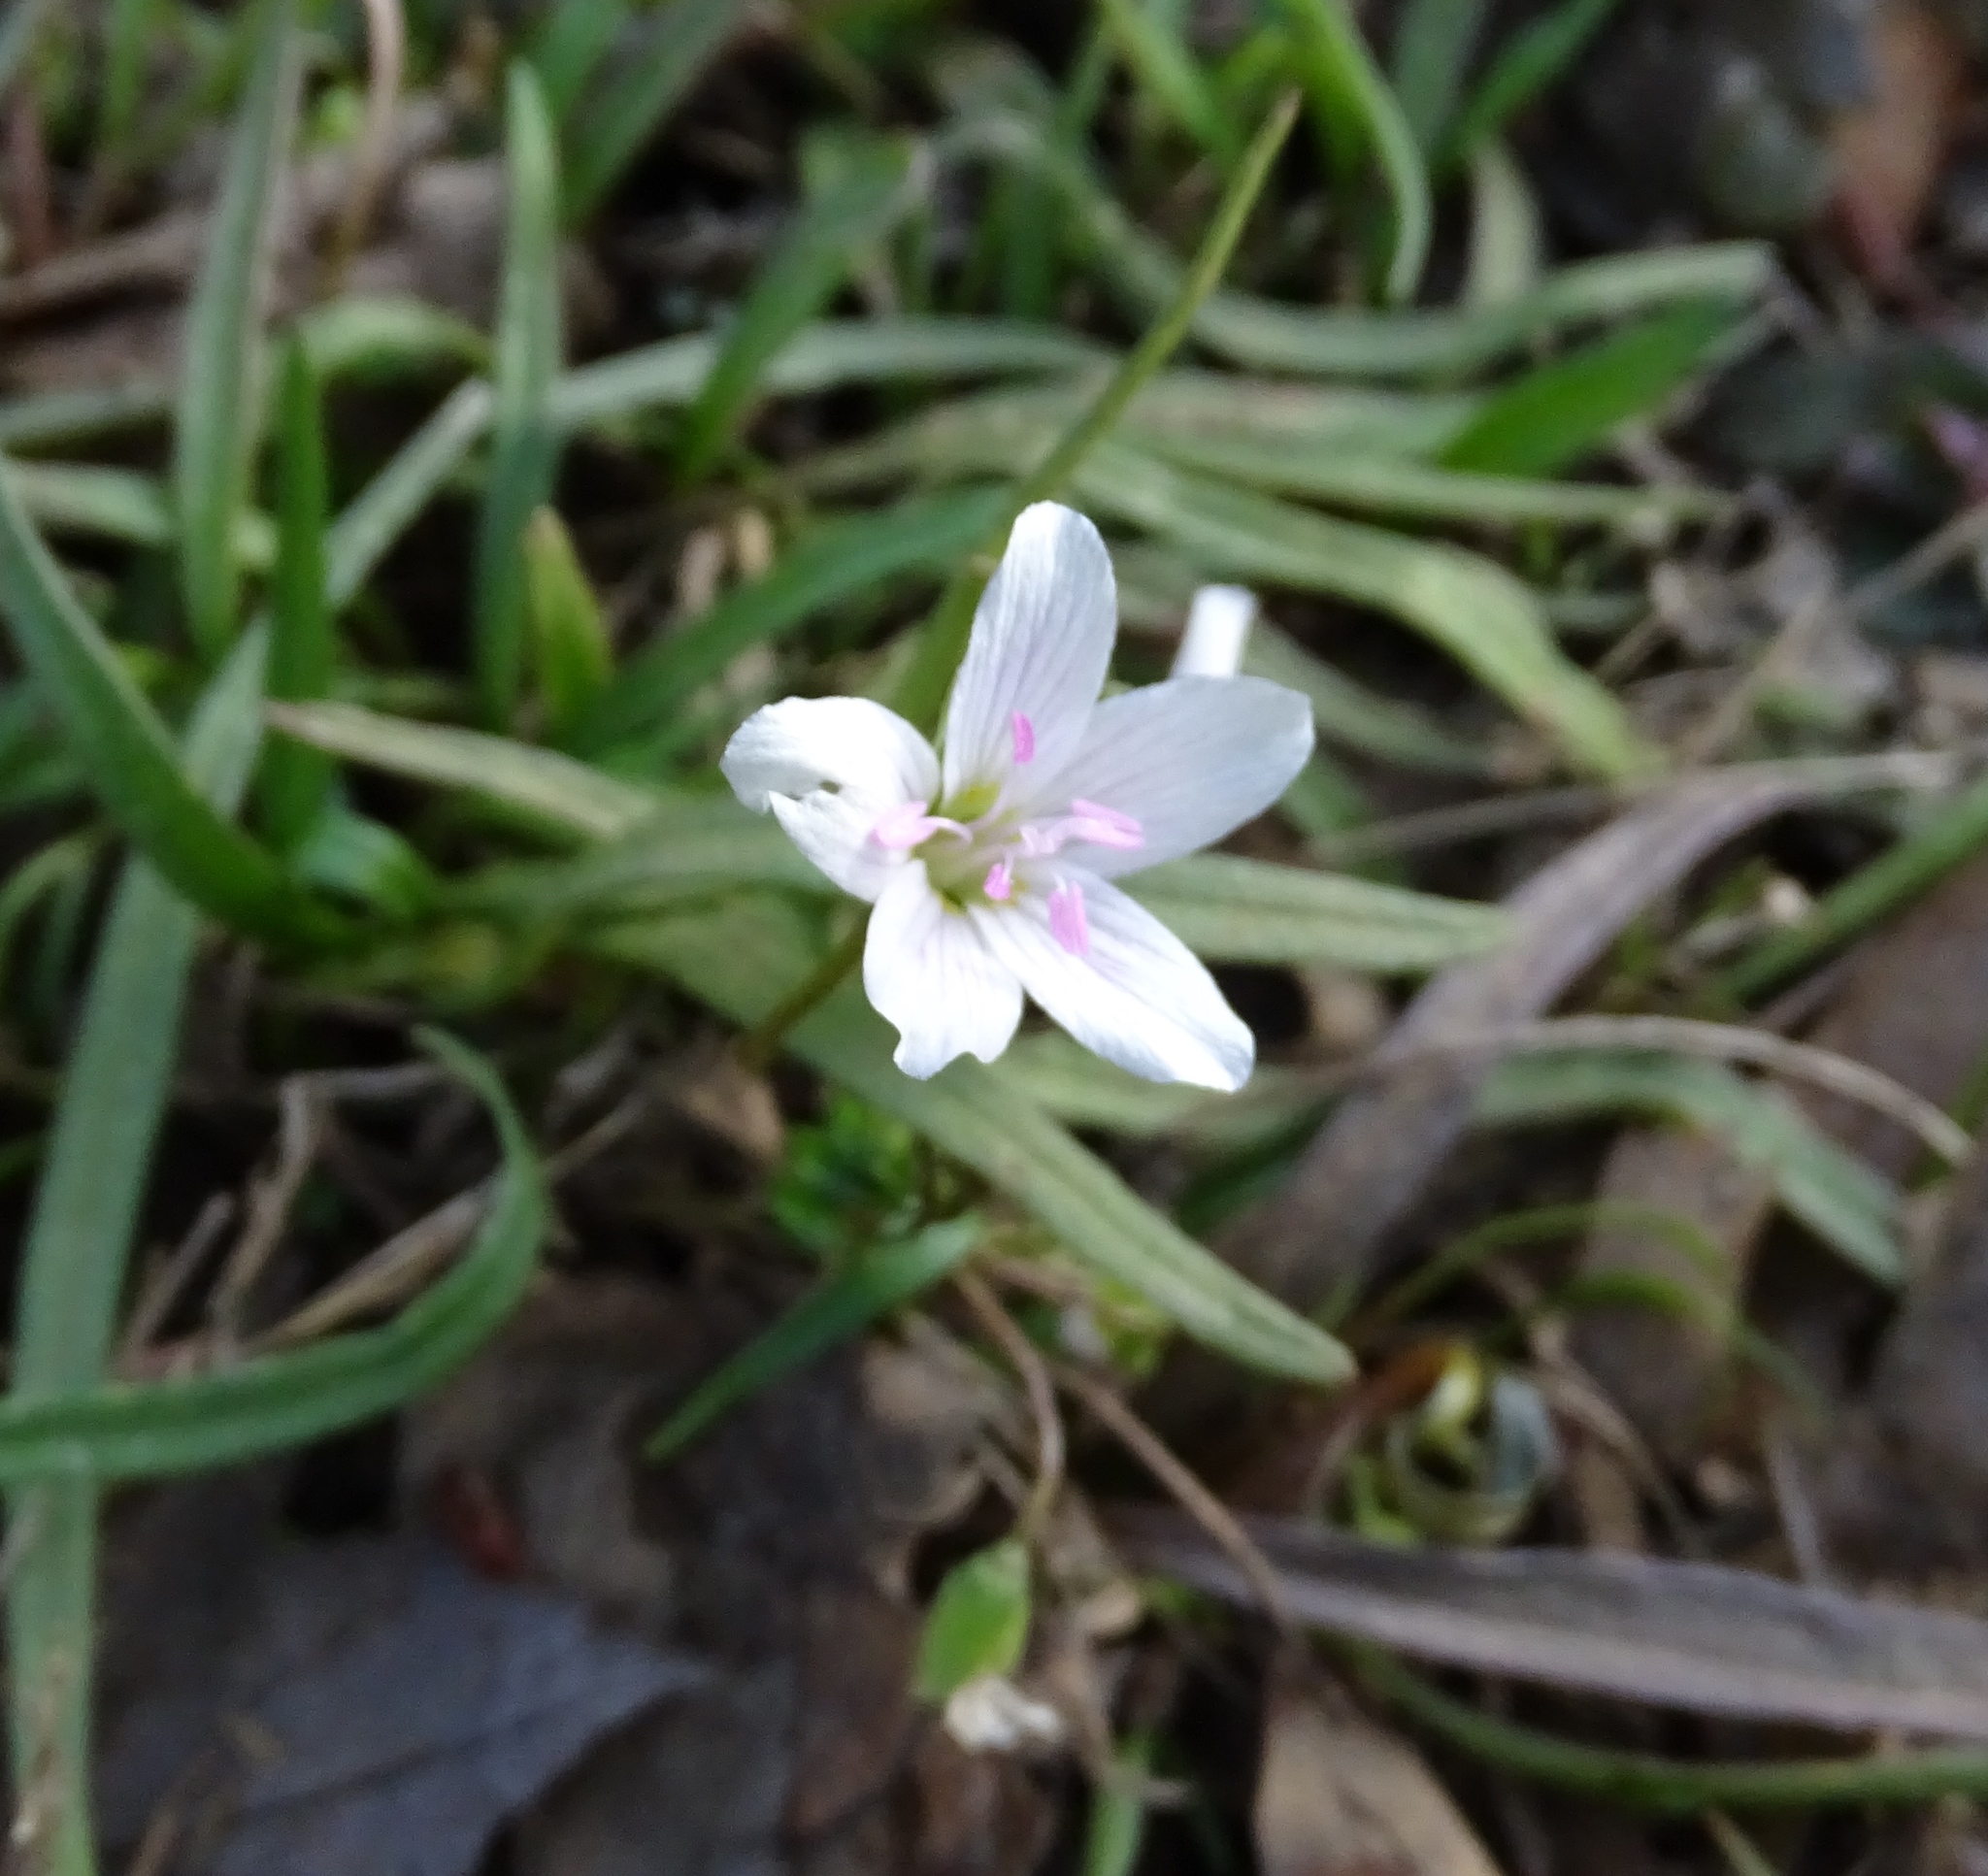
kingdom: Plantae
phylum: Tracheophyta
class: Magnoliopsida
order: Caryophyllales
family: Montiaceae
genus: Claytonia
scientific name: Claytonia virginica
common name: Virginia springbeauty
